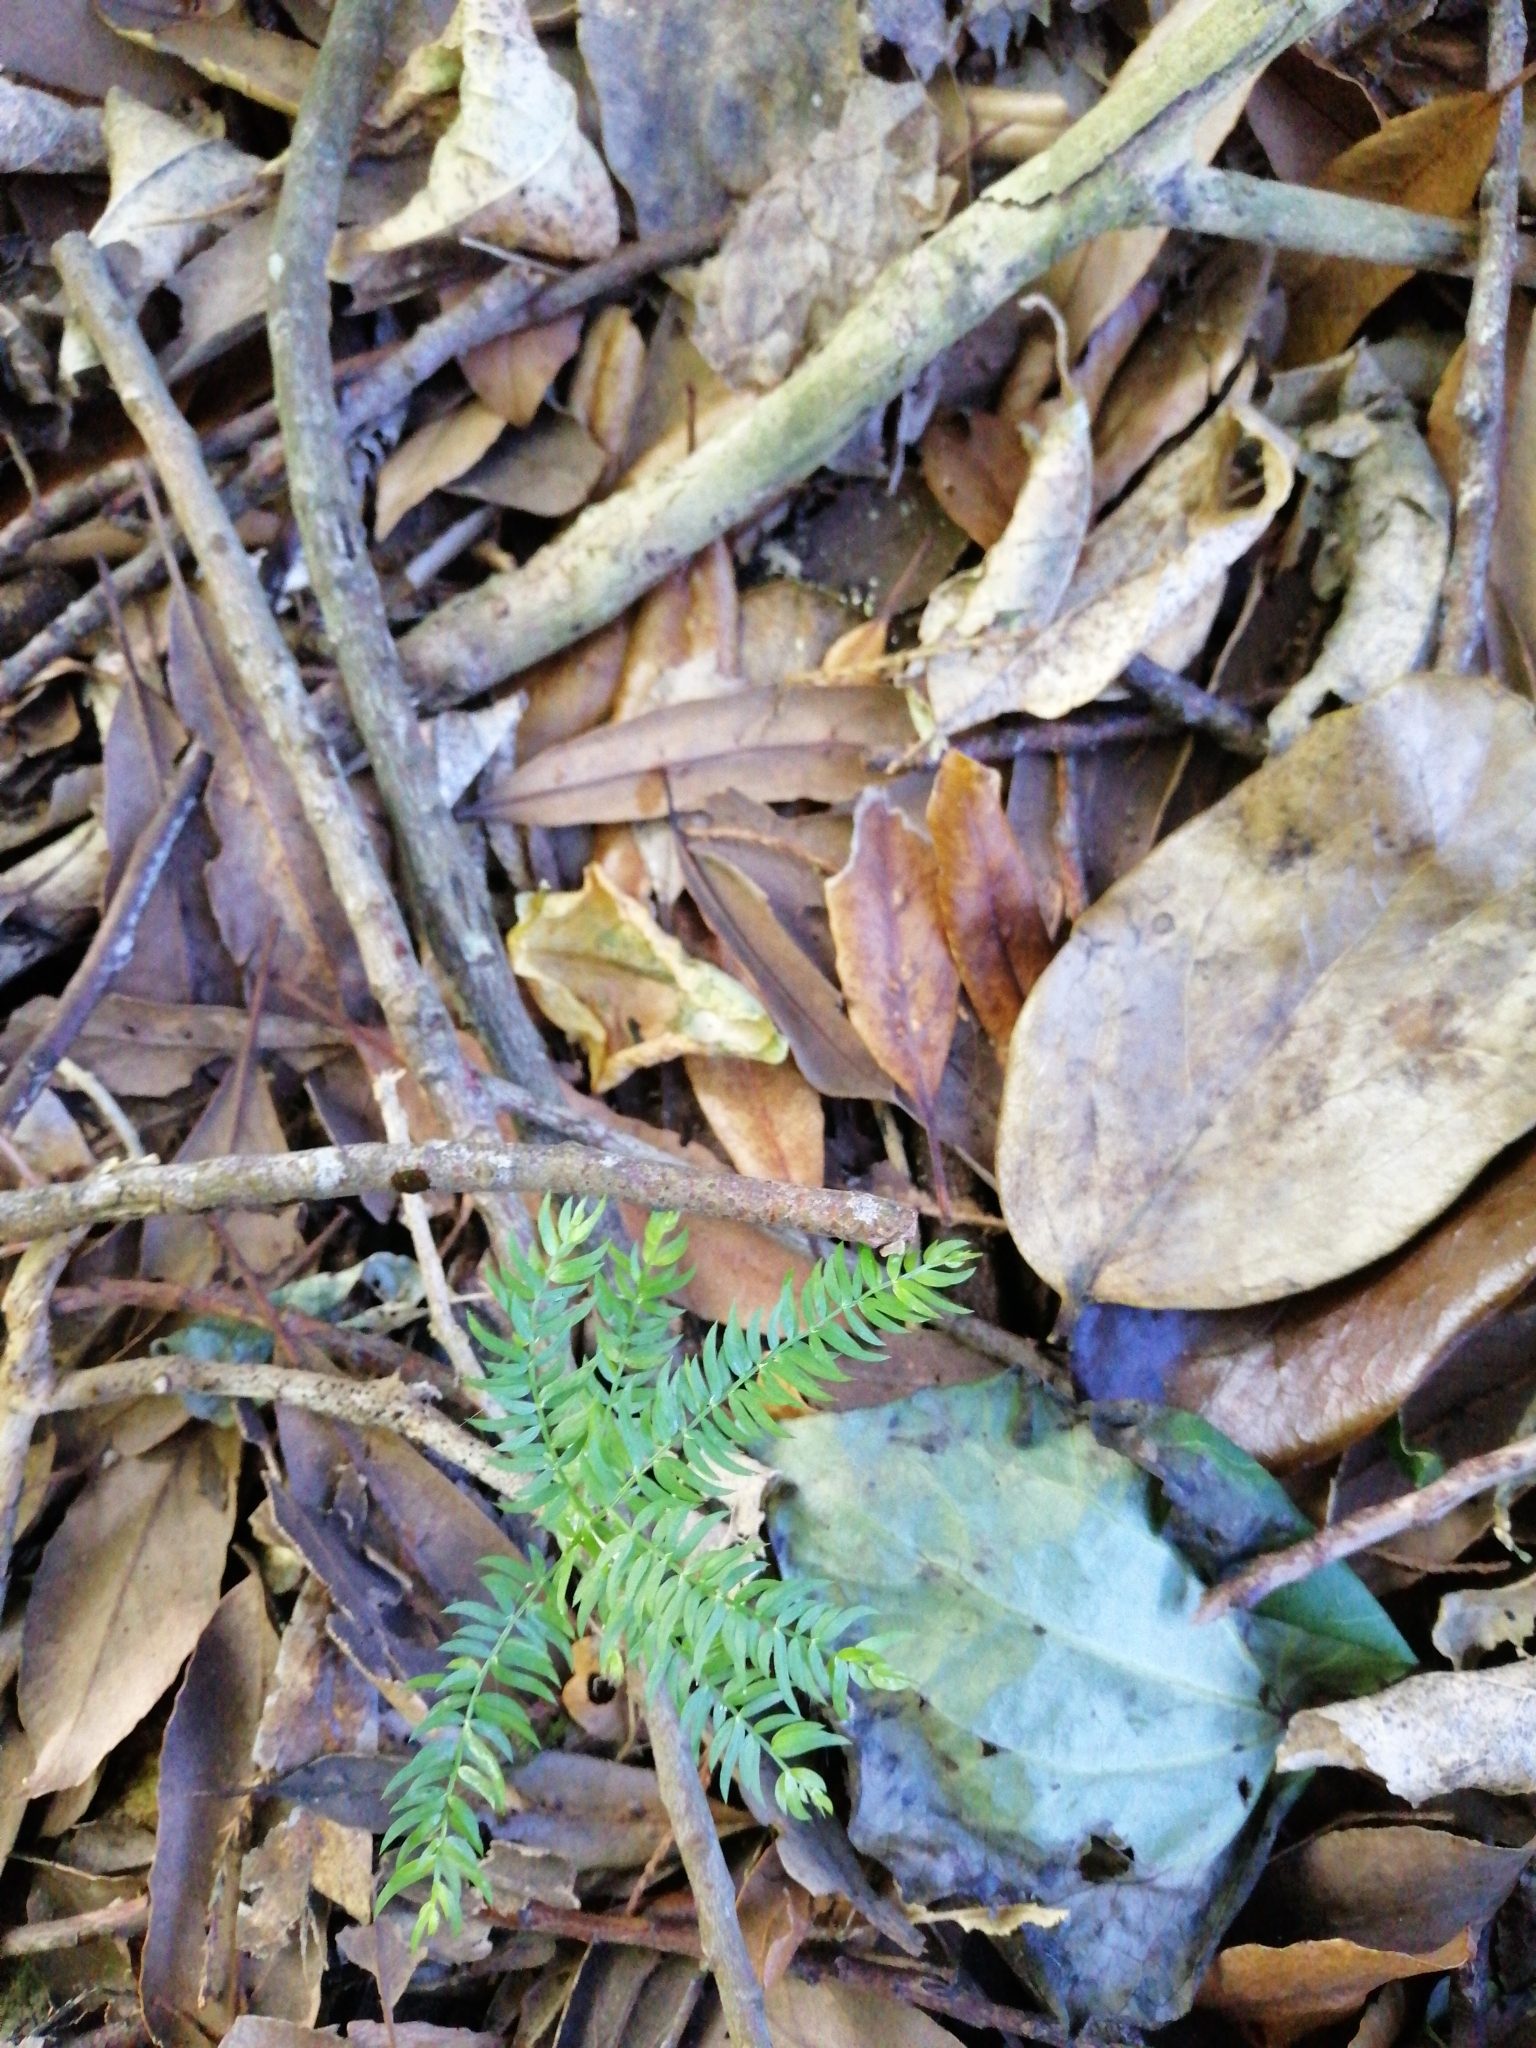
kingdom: Plantae
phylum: Tracheophyta
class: Liliopsida
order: Asparagales
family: Asparagaceae
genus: Asparagus
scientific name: Asparagus scandens
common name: Asparagus-fern
